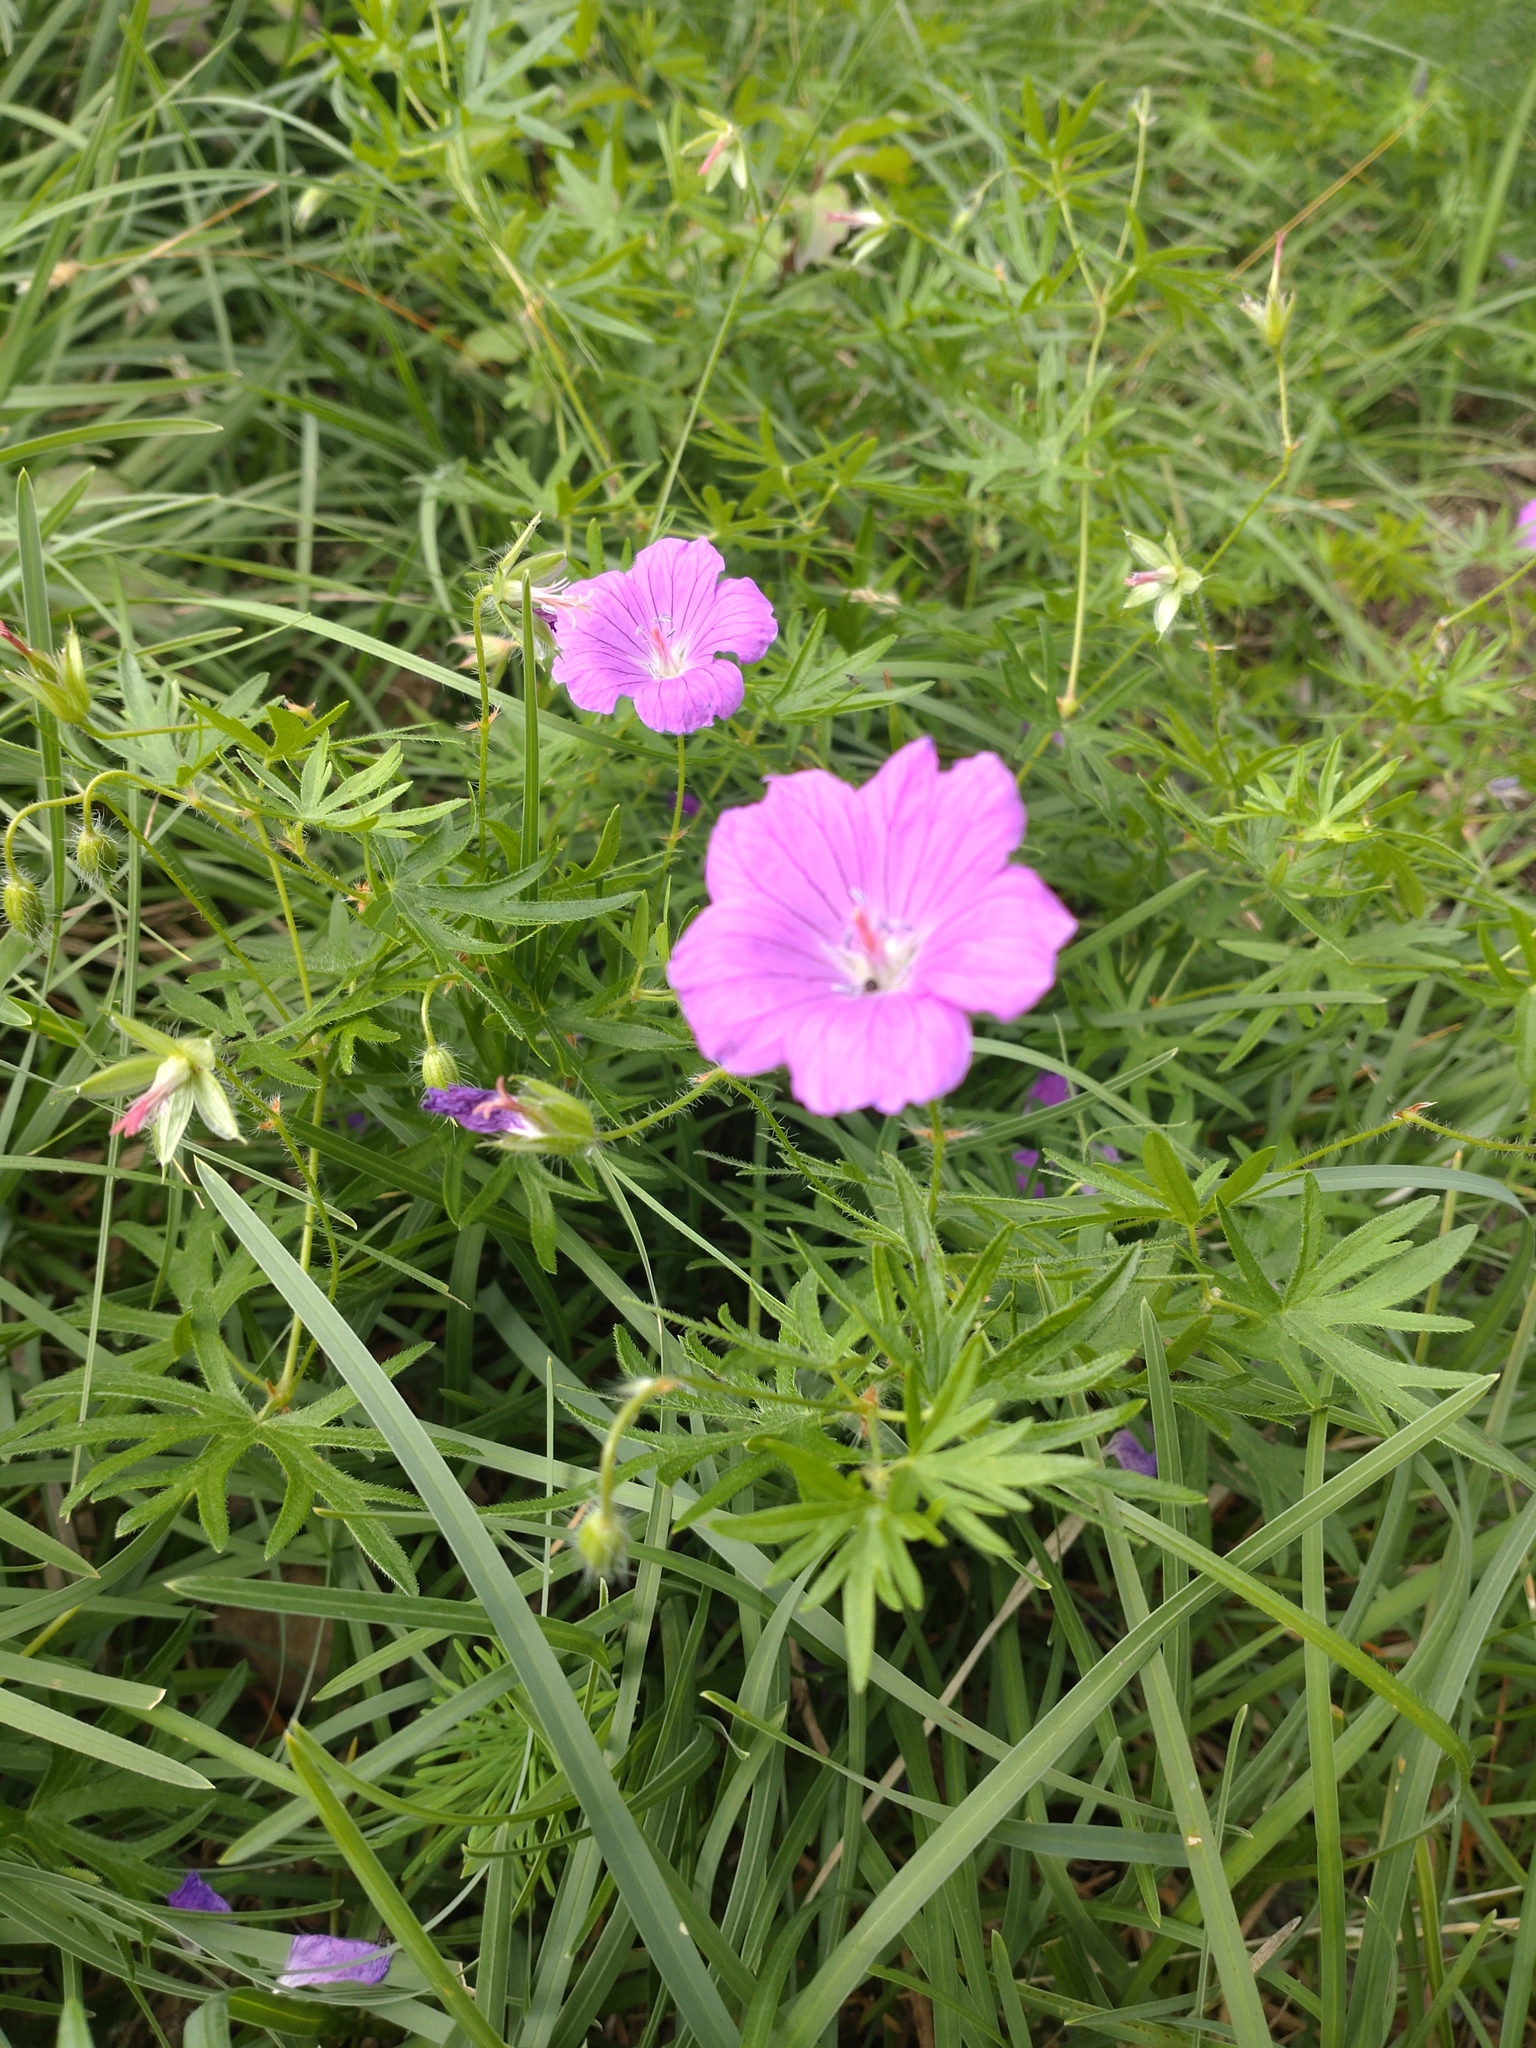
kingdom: Plantae
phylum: Tracheophyta
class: Magnoliopsida
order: Geraniales
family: Geraniaceae
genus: Geranium
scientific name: Geranium sanguineum
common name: Bloody crane's-bill
